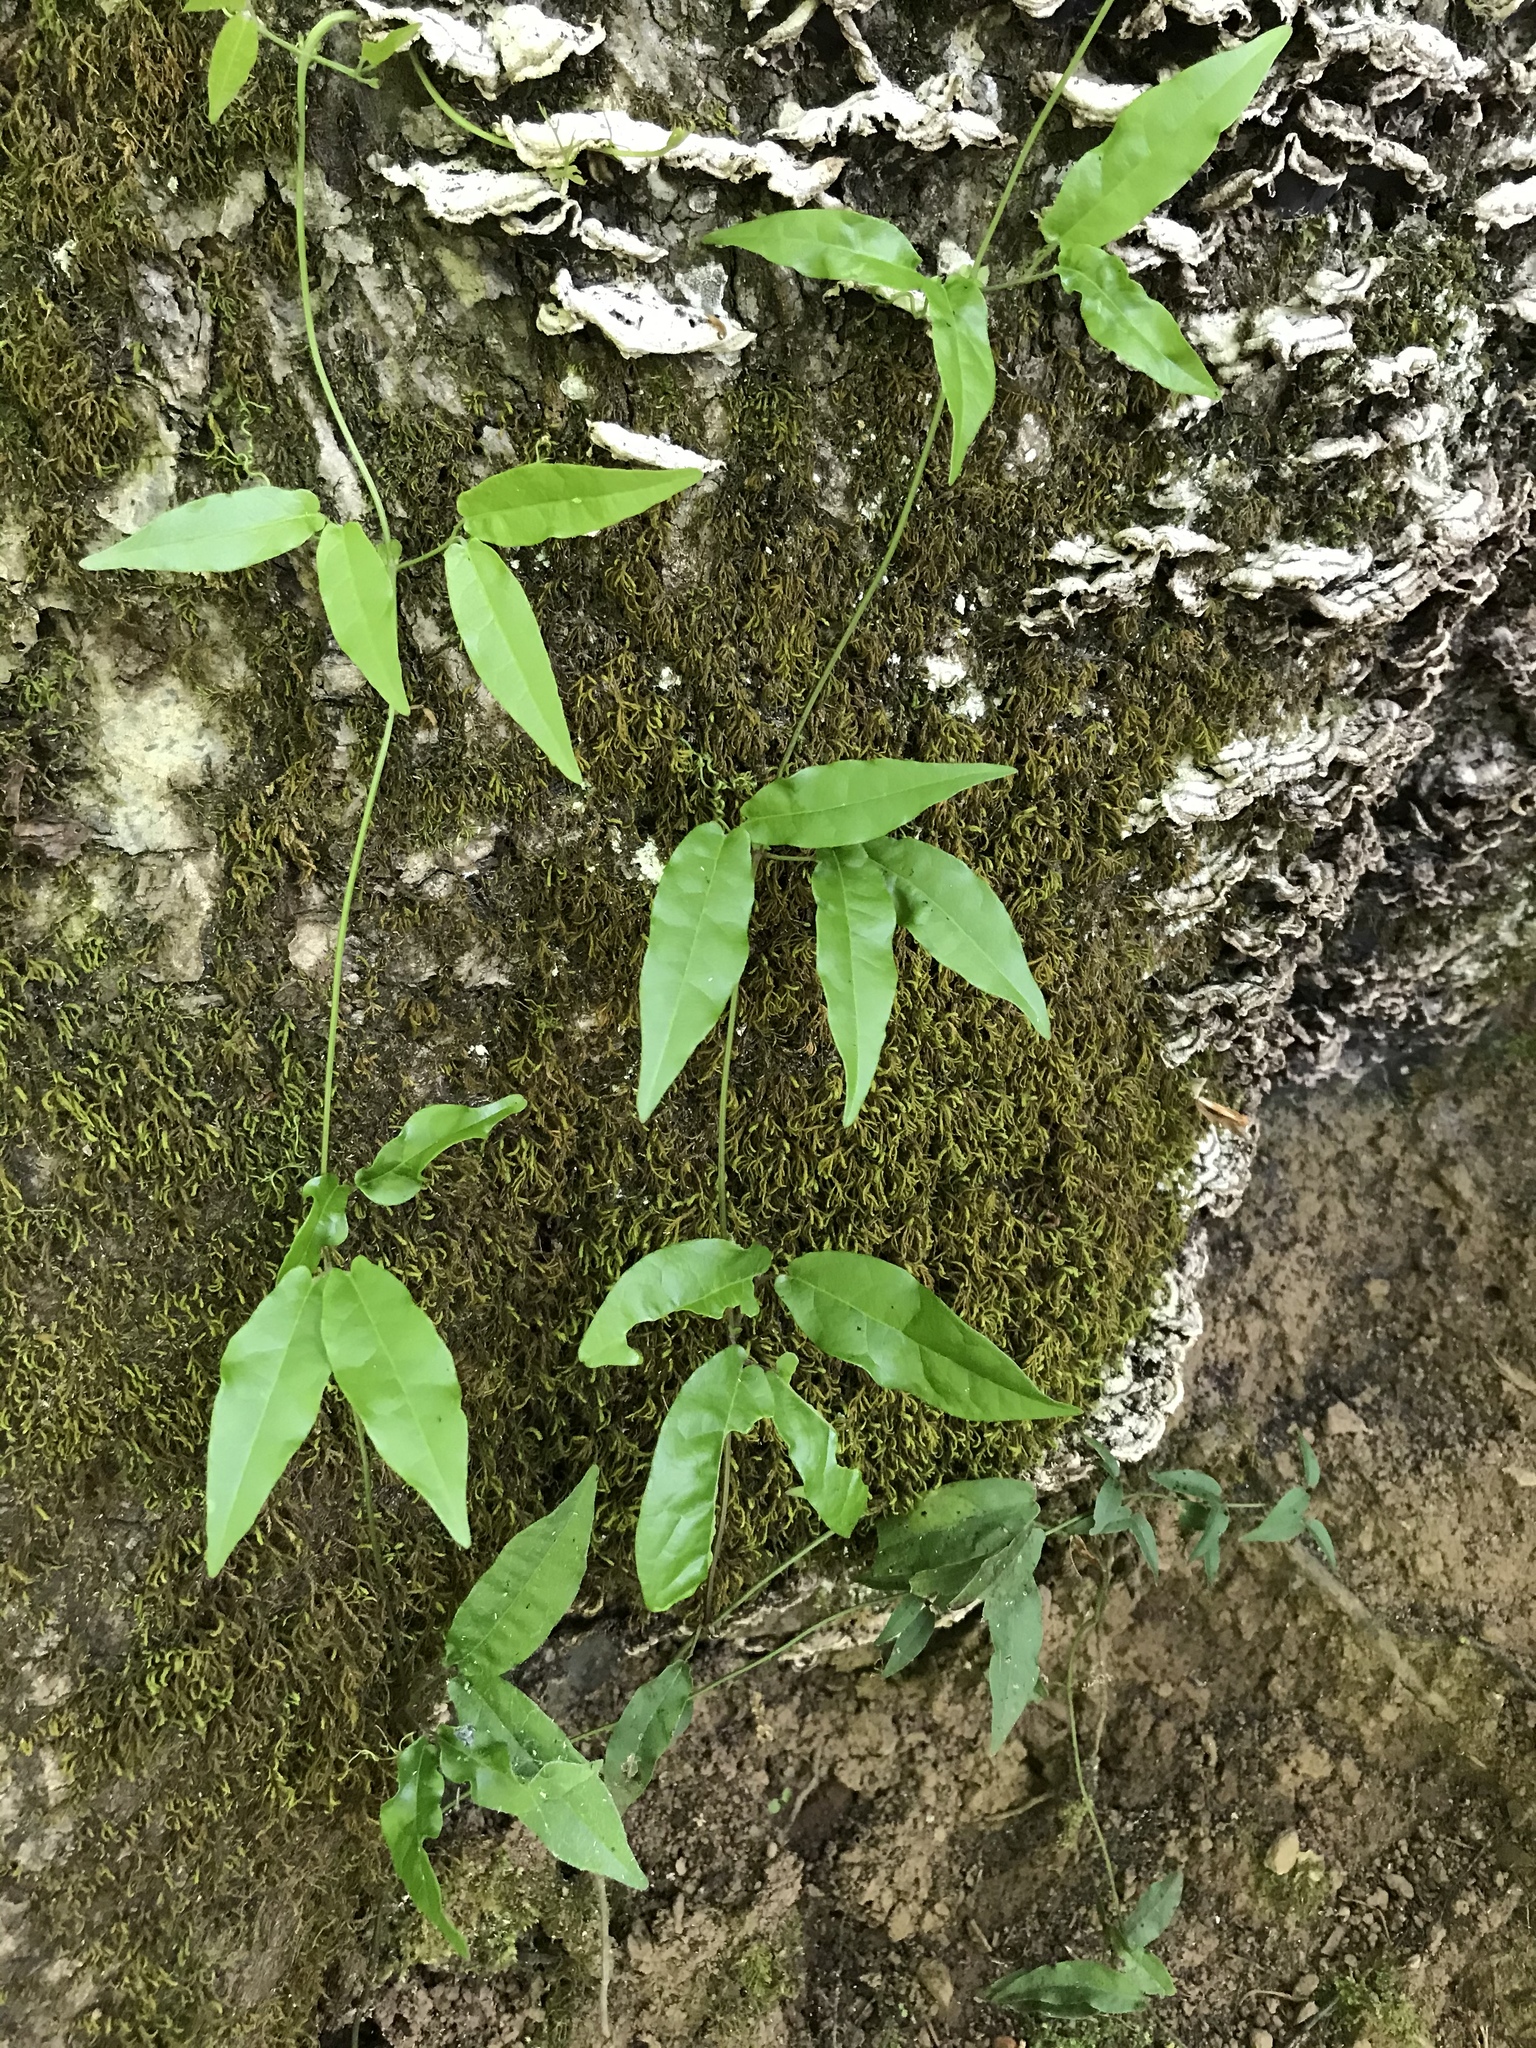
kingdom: Plantae
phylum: Tracheophyta
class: Magnoliopsida
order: Lamiales
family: Bignoniaceae
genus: Bignonia
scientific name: Bignonia capreolata
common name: Crossvine
